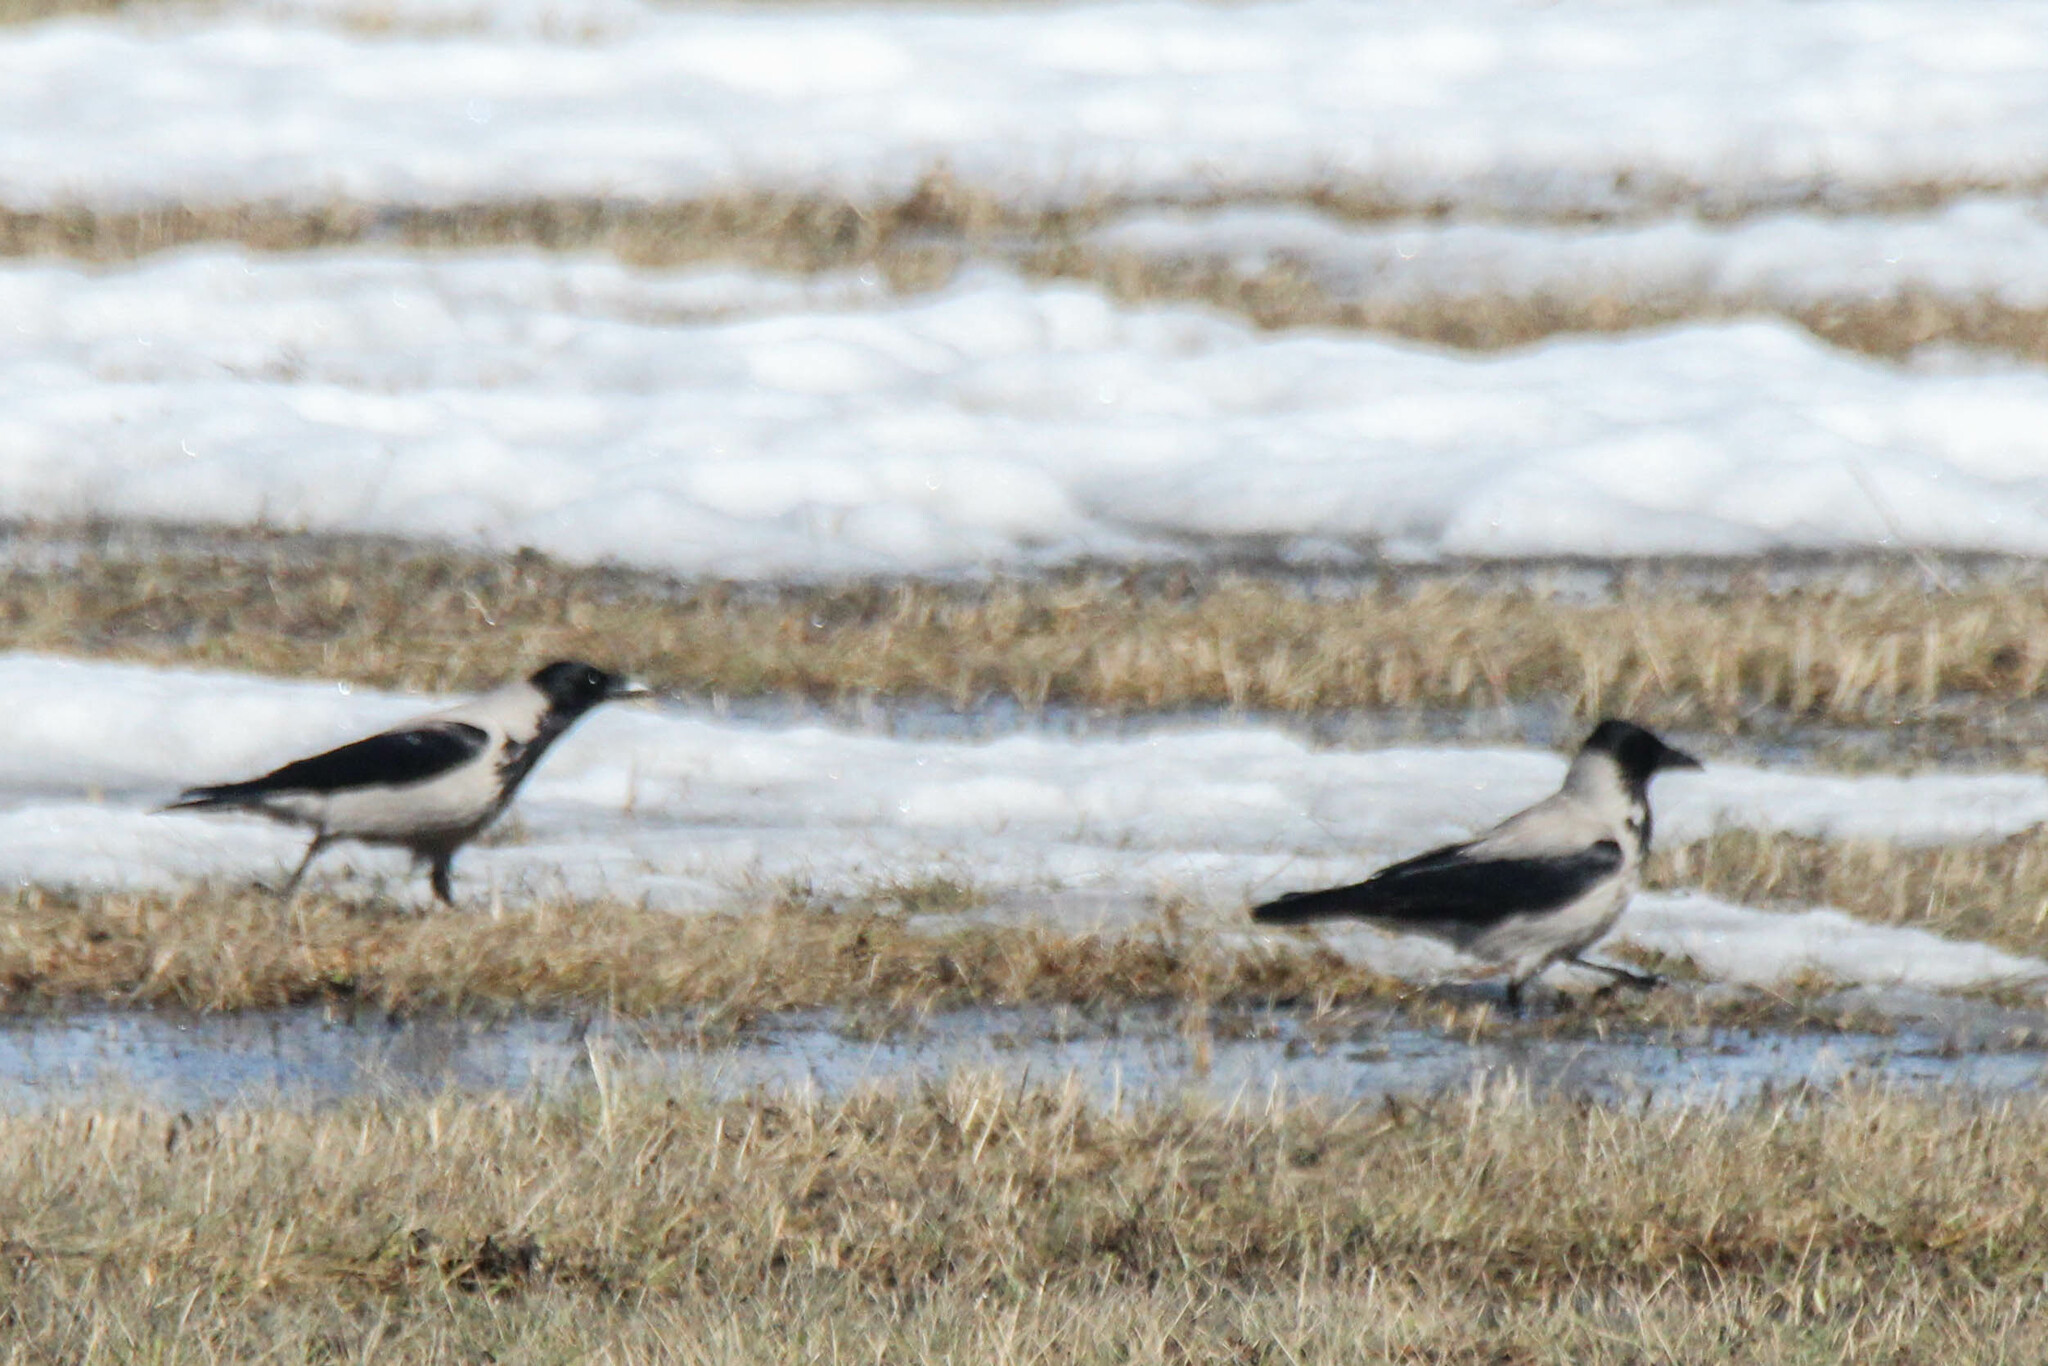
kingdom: Animalia
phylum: Chordata
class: Aves
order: Passeriformes
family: Corvidae
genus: Corvus
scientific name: Corvus cornix
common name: Hooded crow
